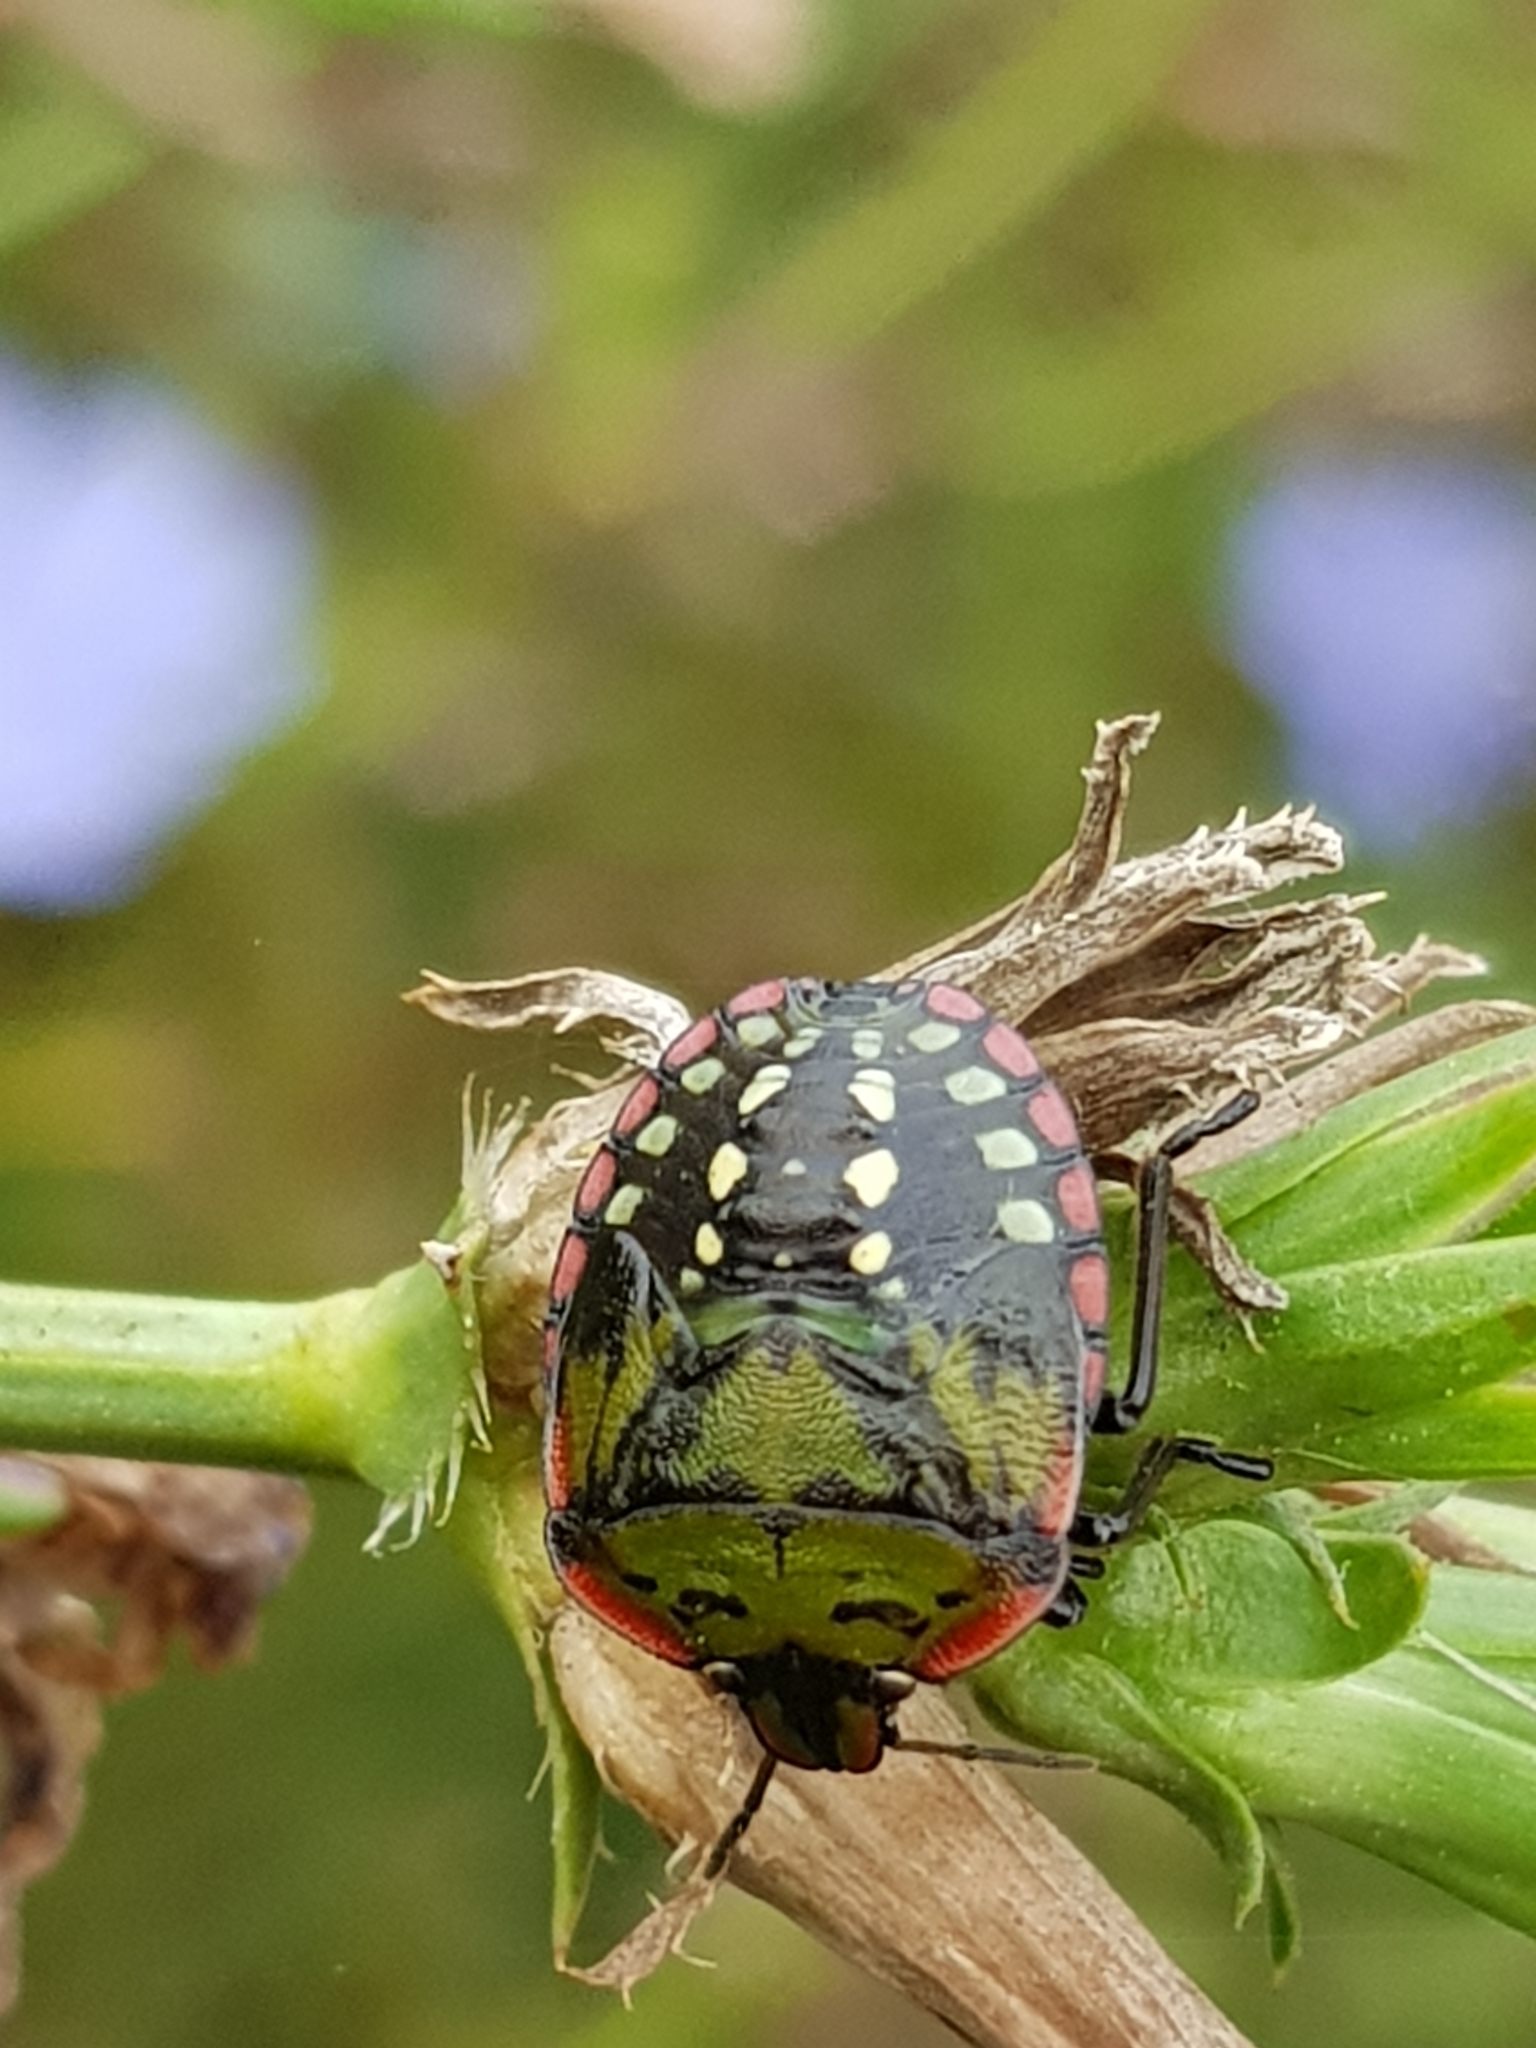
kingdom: Animalia
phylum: Arthropoda
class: Insecta
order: Hemiptera
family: Pentatomidae
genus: Nezara
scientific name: Nezara viridula
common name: Southern green stink bug
